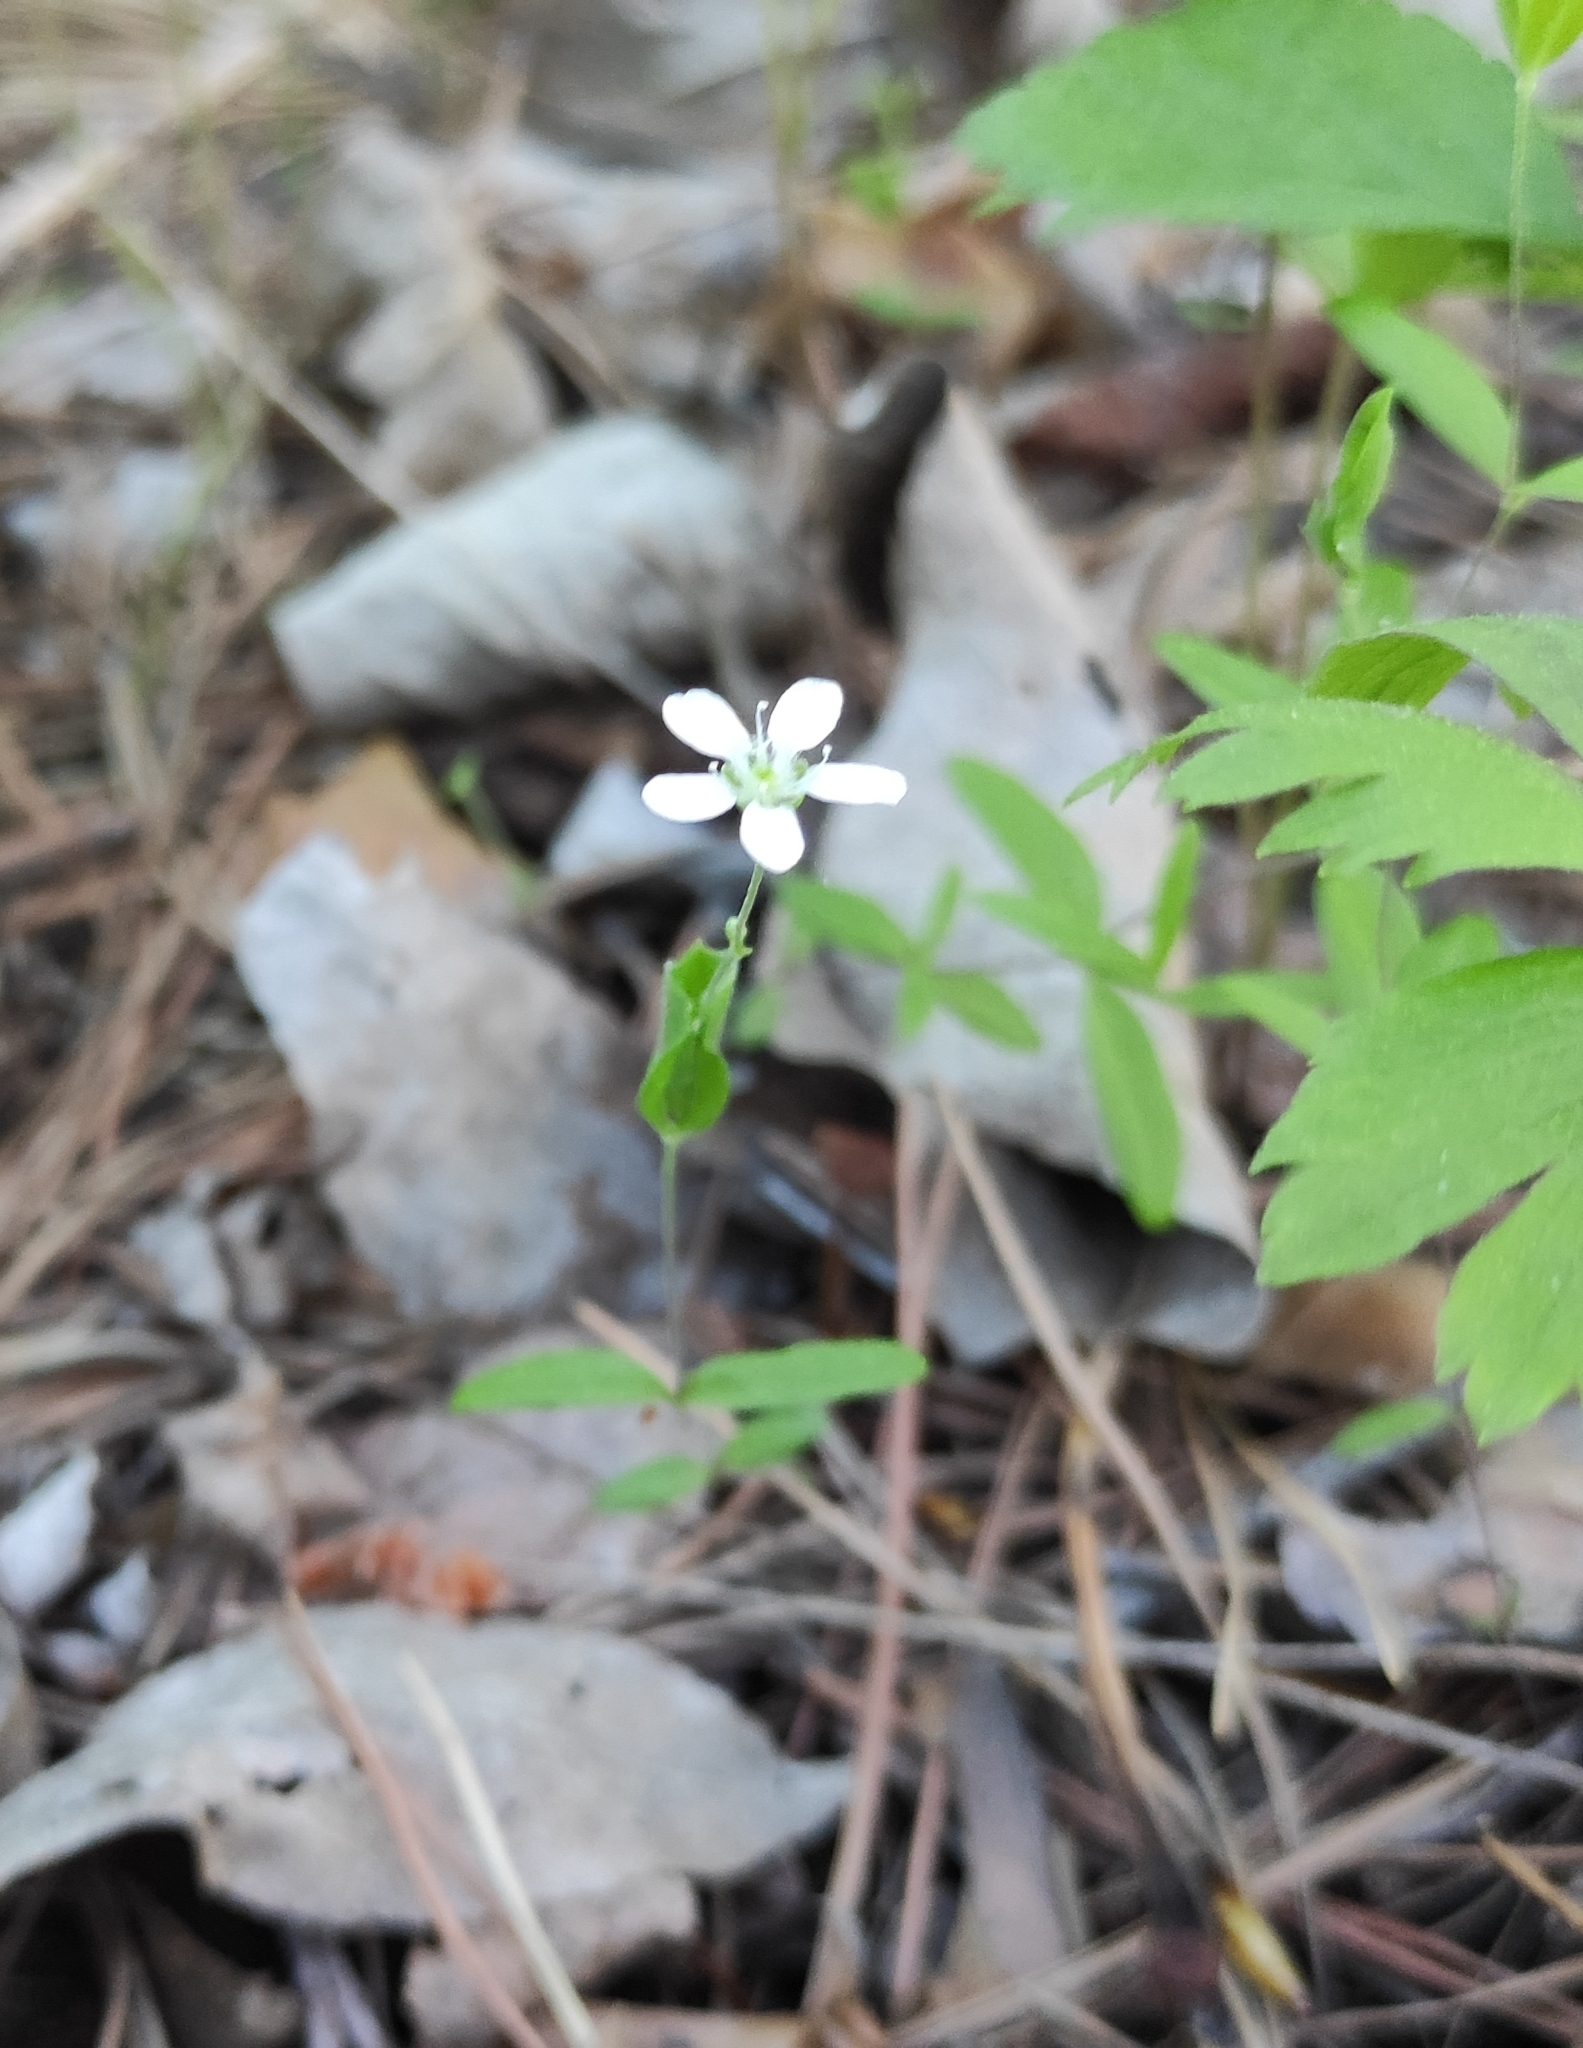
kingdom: Plantae
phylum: Tracheophyta
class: Magnoliopsida
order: Caryophyllales
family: Caryophyllaceae
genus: Moehringia
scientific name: Moehringia lateriflora
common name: Blunt-leaved sandwort
